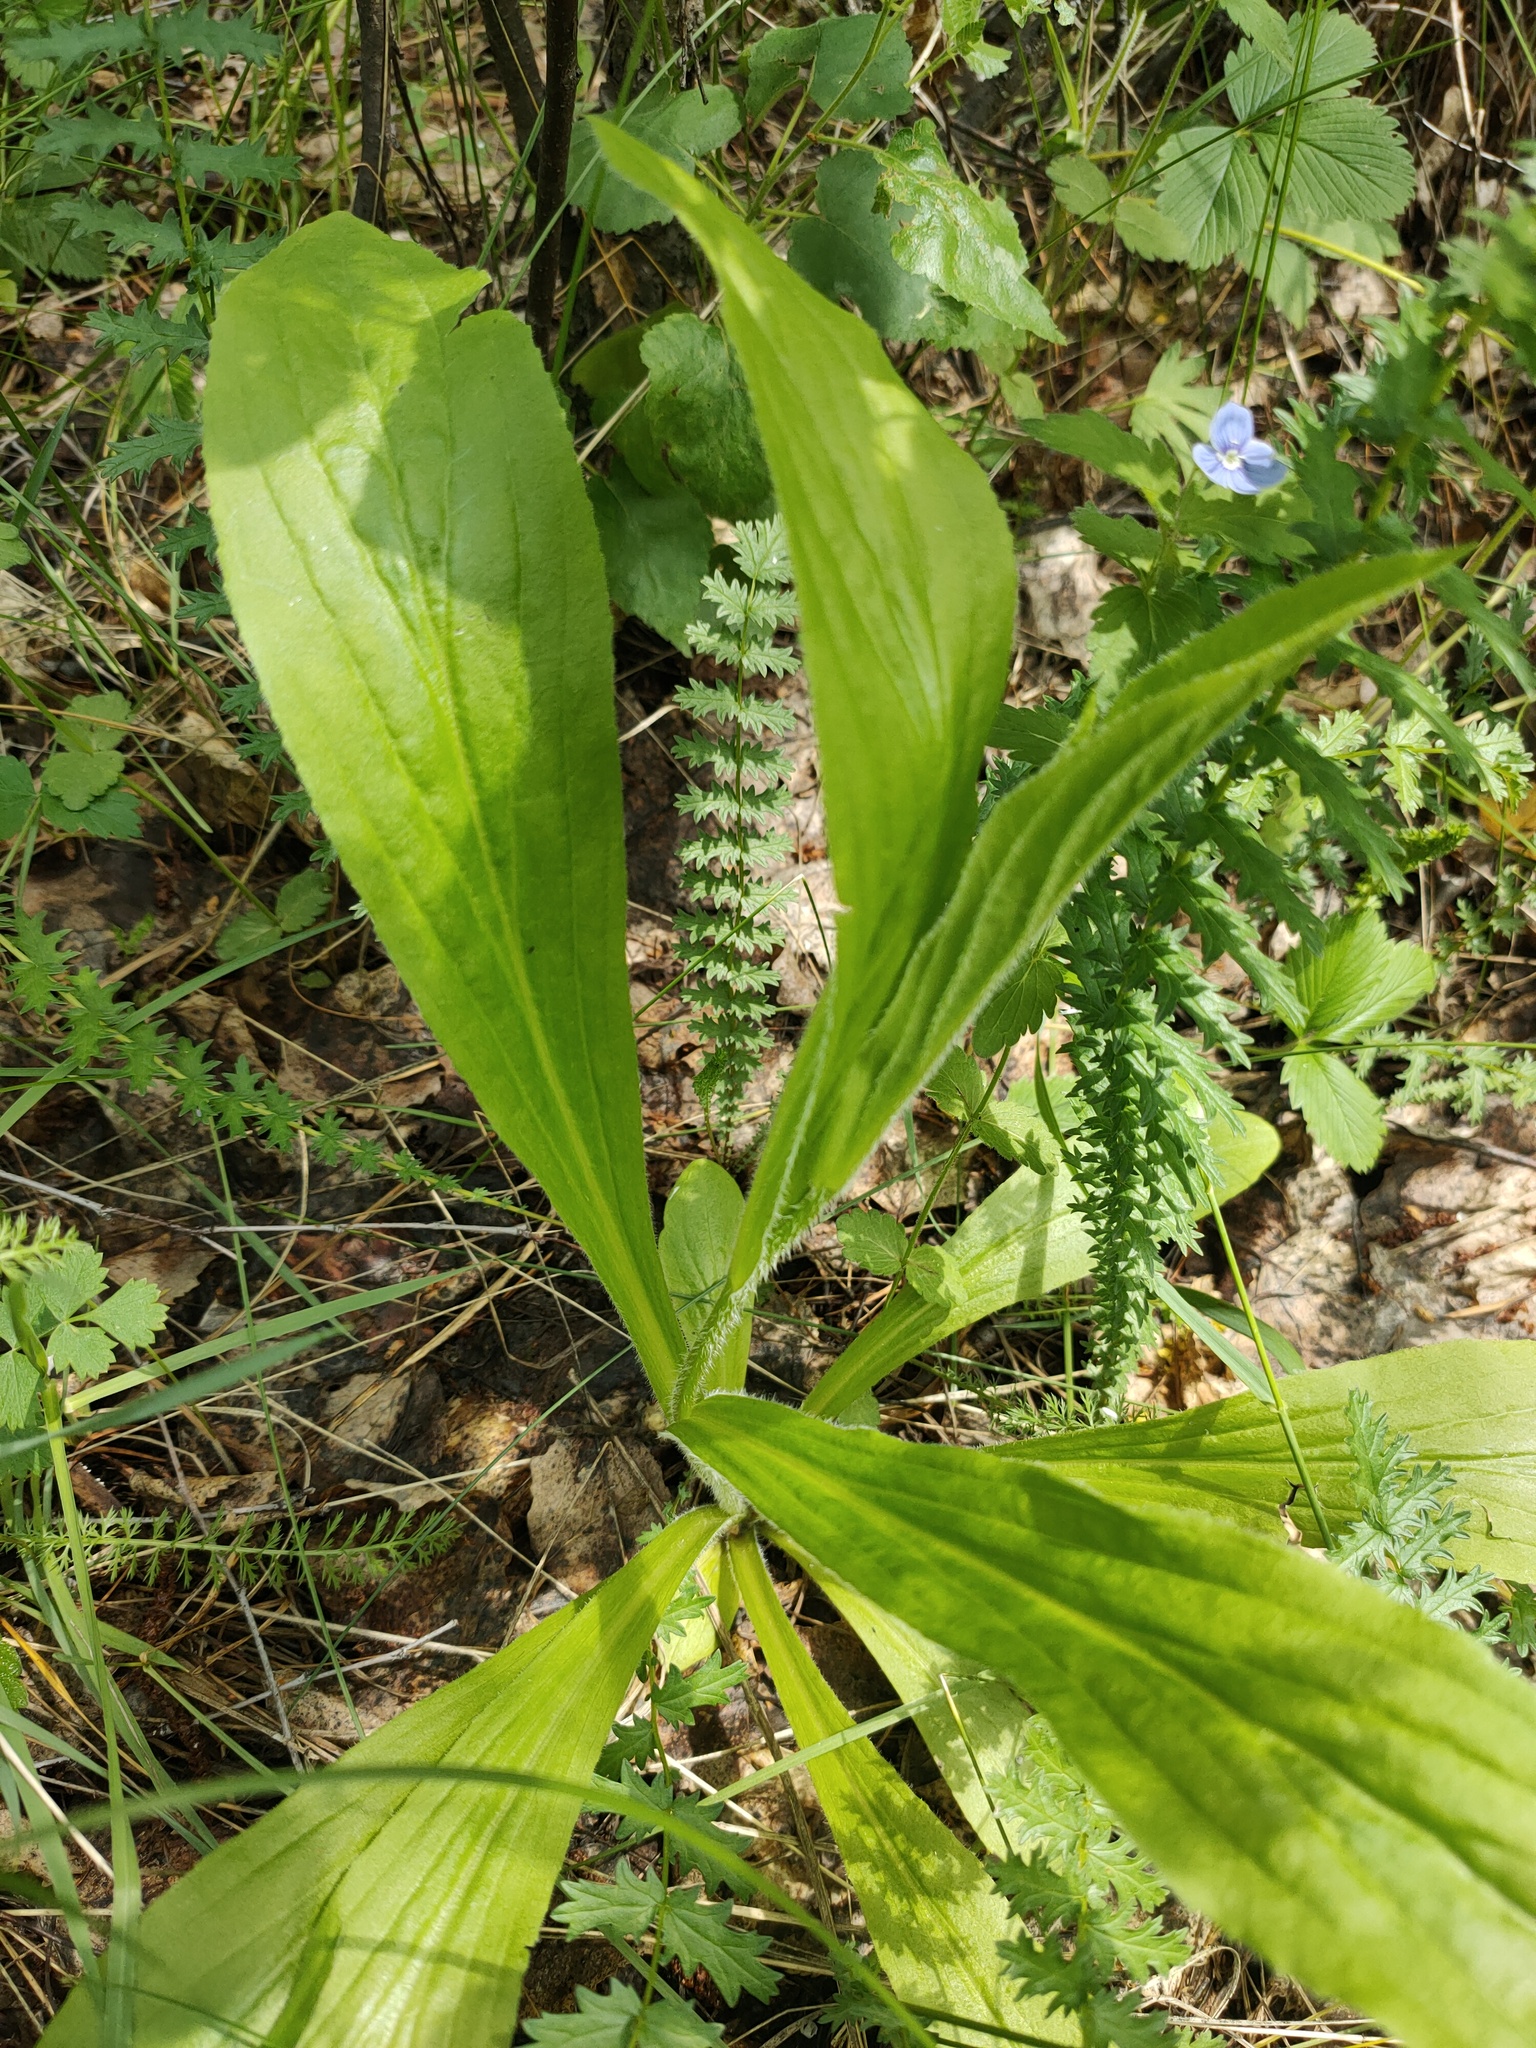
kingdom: Plantae
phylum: Tracheophyta
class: Magnoliopsida
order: Lamiales
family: Plantaginaceae
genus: Digitalis
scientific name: Digitalis grandiflora
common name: Yellow foxglove
